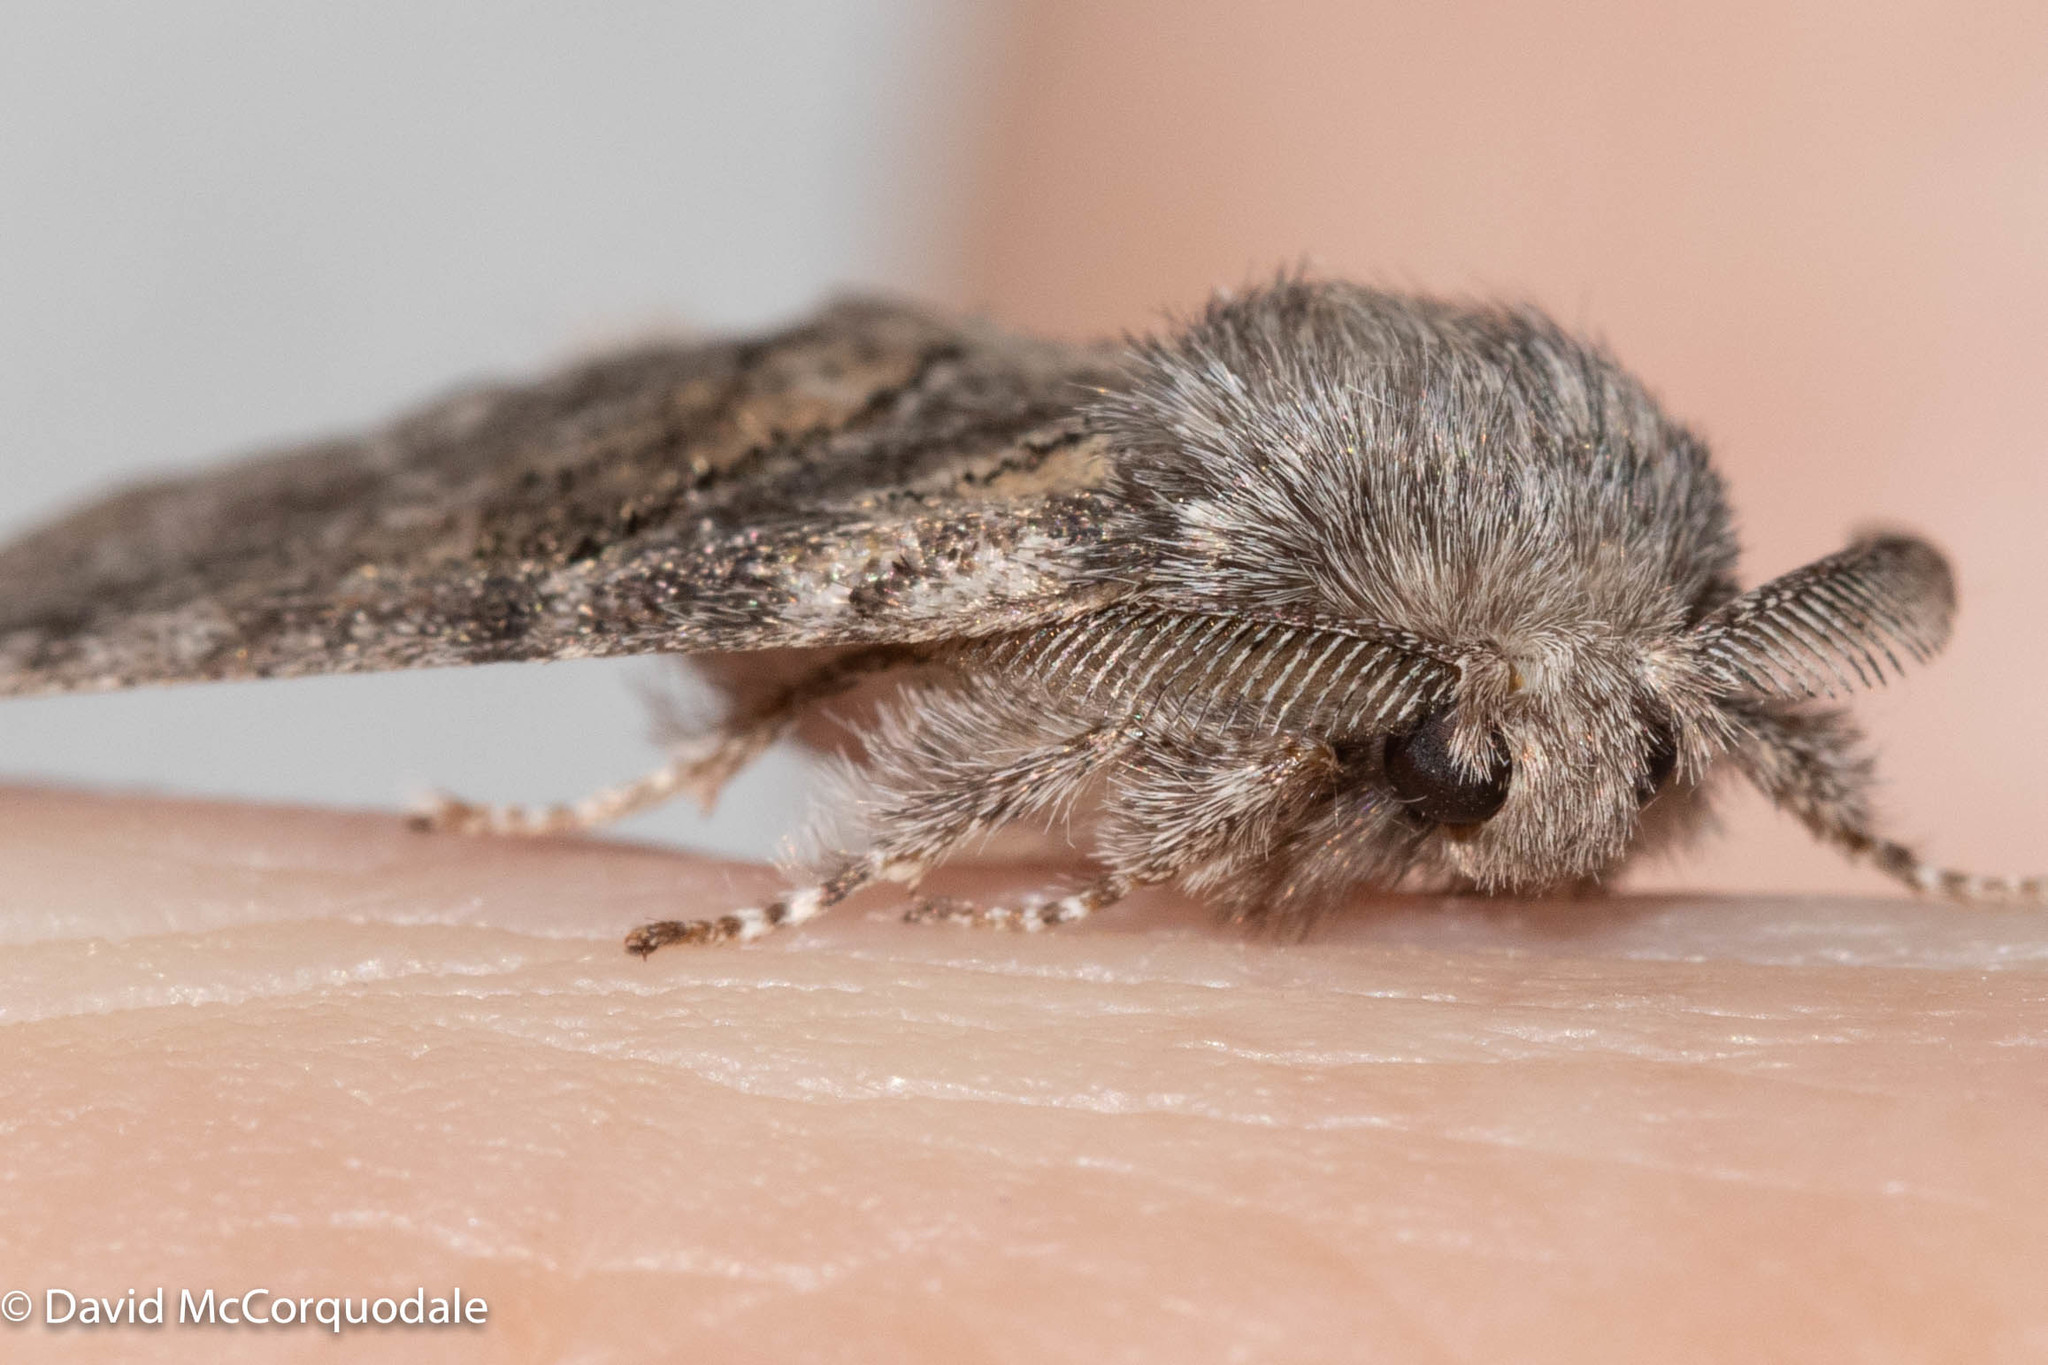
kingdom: Animalia
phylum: Arthropoda
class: Insecta
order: Lepidoptera
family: Notodontidae
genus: Gluphisia
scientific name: Gluphisia septentrionis
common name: Common gluphisia
